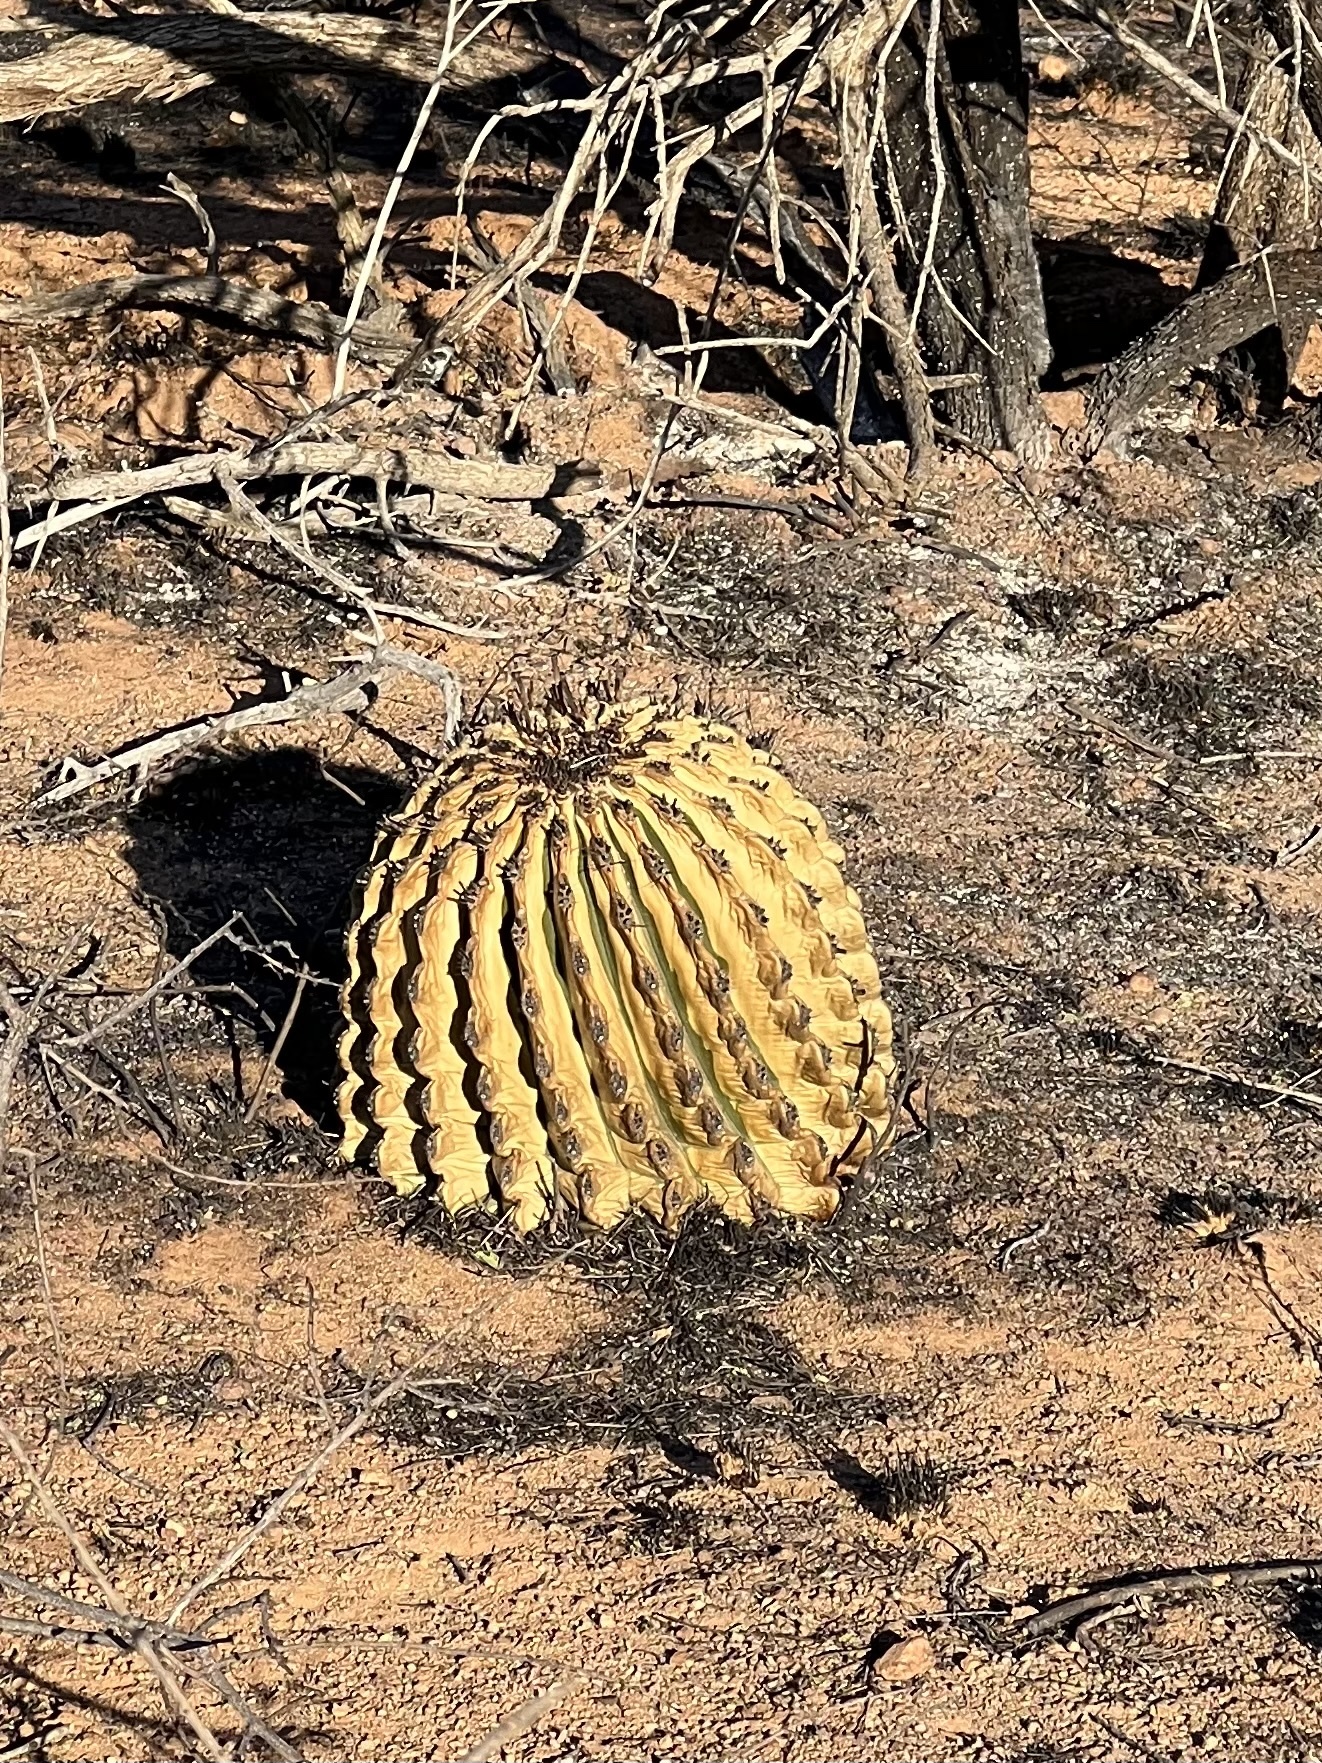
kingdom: Plantae
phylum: Tracheophyta
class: Magnoliopsida
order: Caryophyllales
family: Cactaceae
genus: Ferocactus
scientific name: Ferocactus wislizeni
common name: Candy barrel cactus
